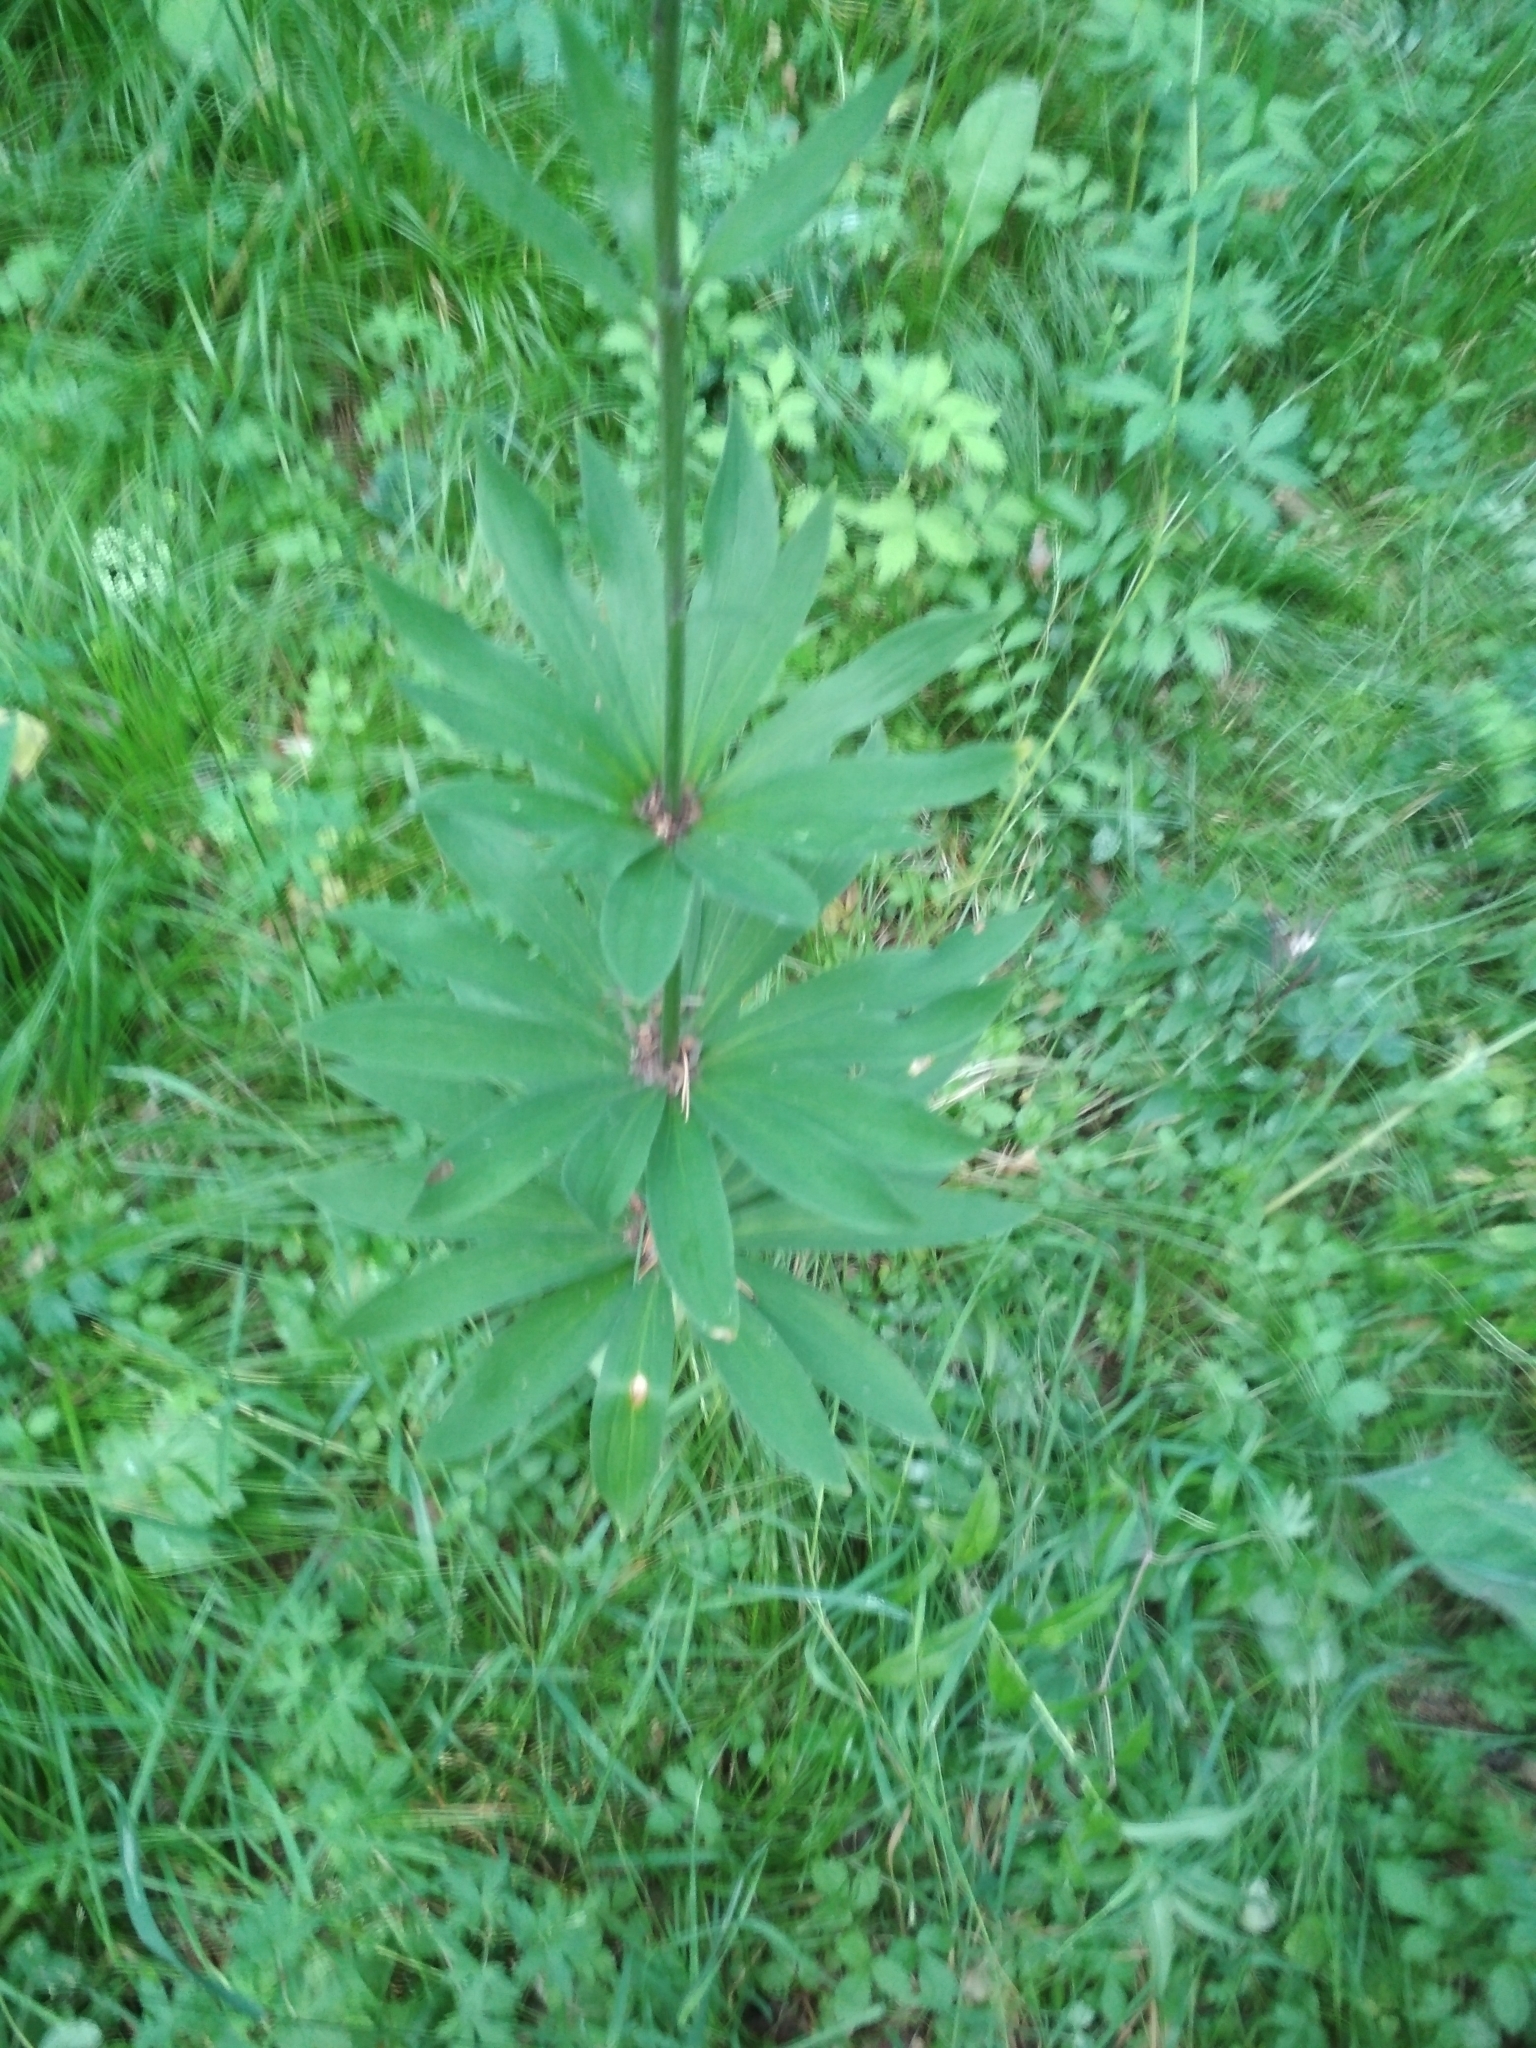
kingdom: Plantae
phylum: Tracheophyta
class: Liliopsida
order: Liliales
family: Liliaceae
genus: Lilium
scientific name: Lilium martagon
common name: Martagon lily
